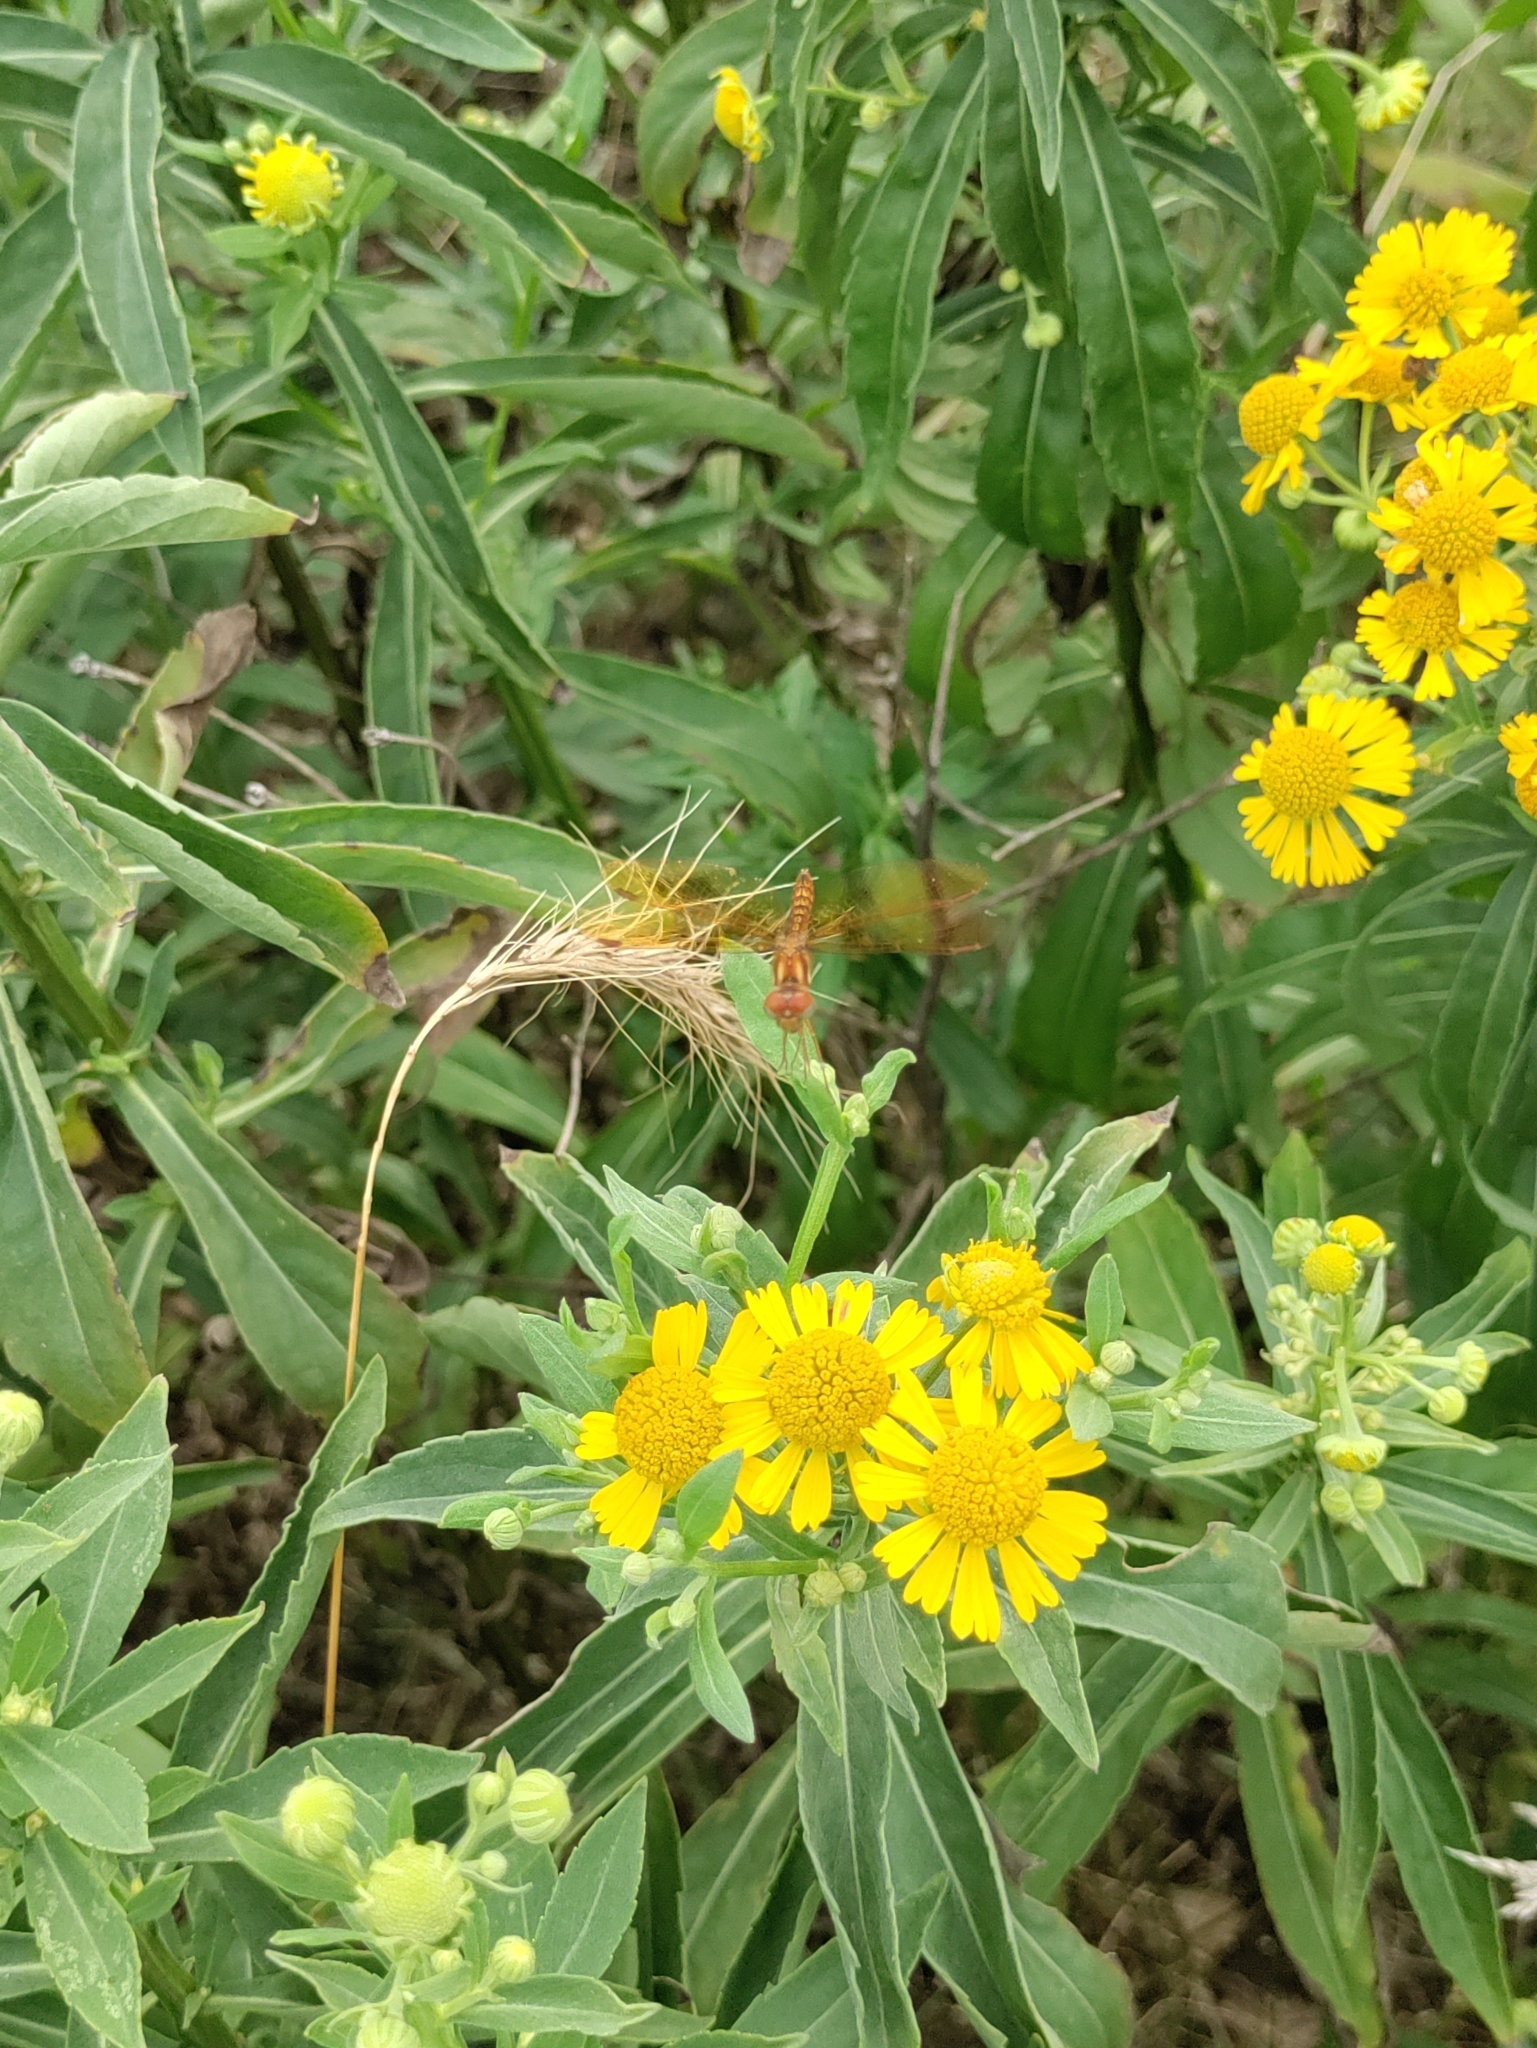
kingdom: Animalia
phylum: Arthropoda
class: Insecta
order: Odonata
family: Libellulidae
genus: Perithemis
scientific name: Perithemis tenera
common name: Eastern amberwing
